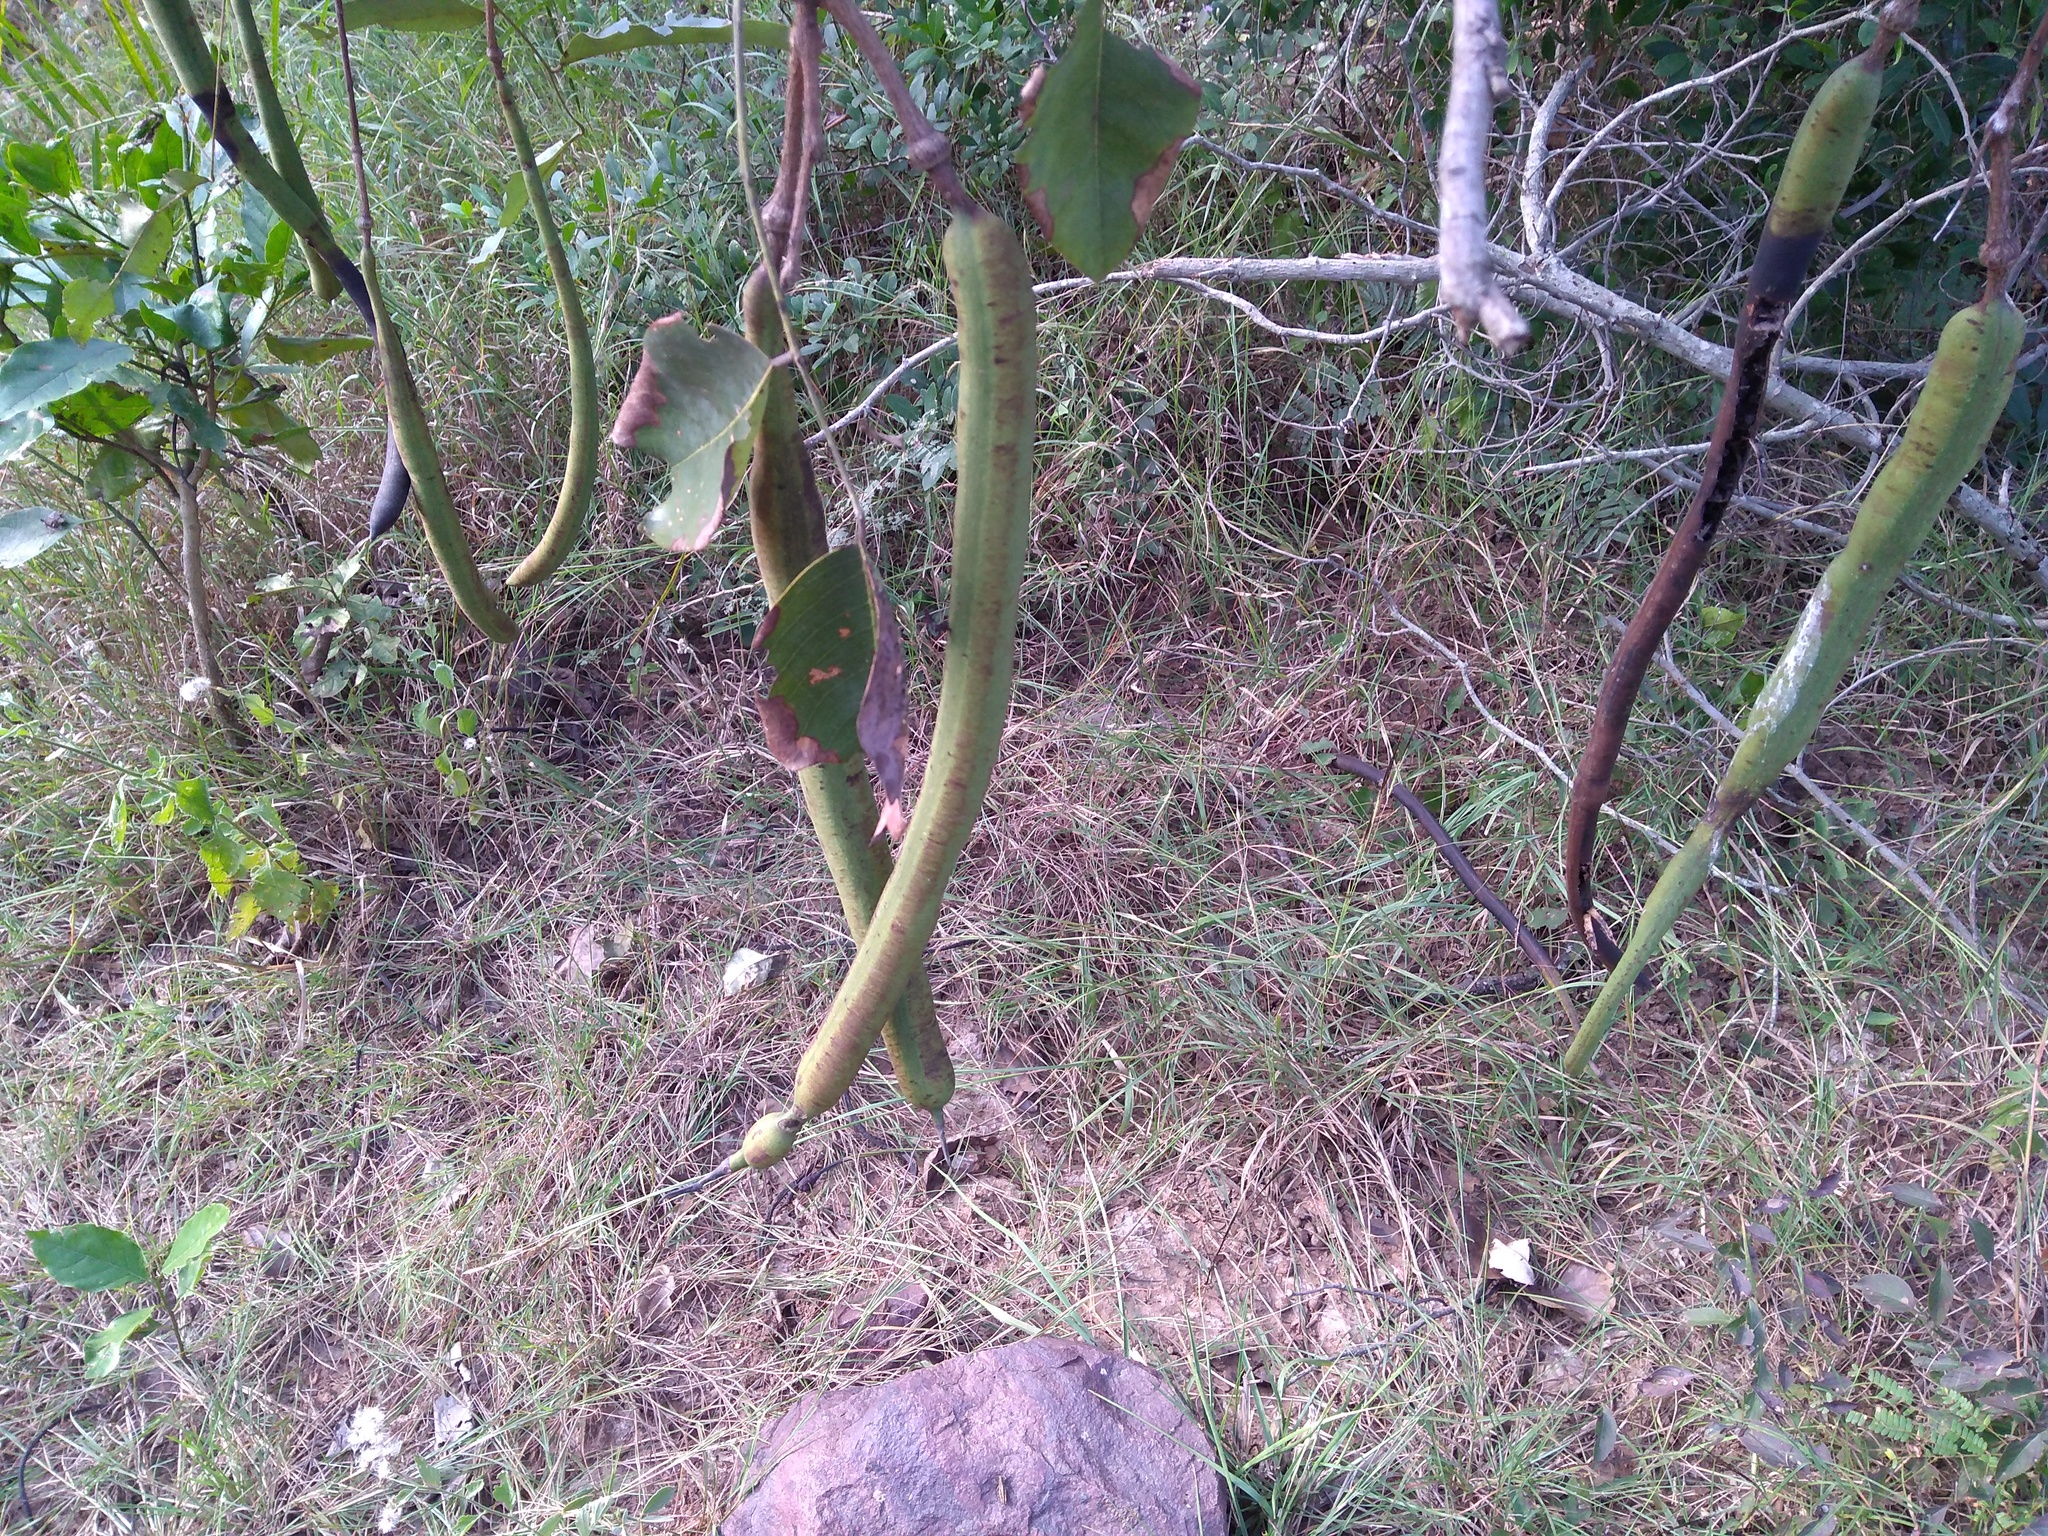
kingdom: Plantae
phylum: Tracheophyta
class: Magnoliopsida
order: Fabales
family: Fabaceae
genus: Cassia
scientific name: Cassia fistula
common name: Golden shower
